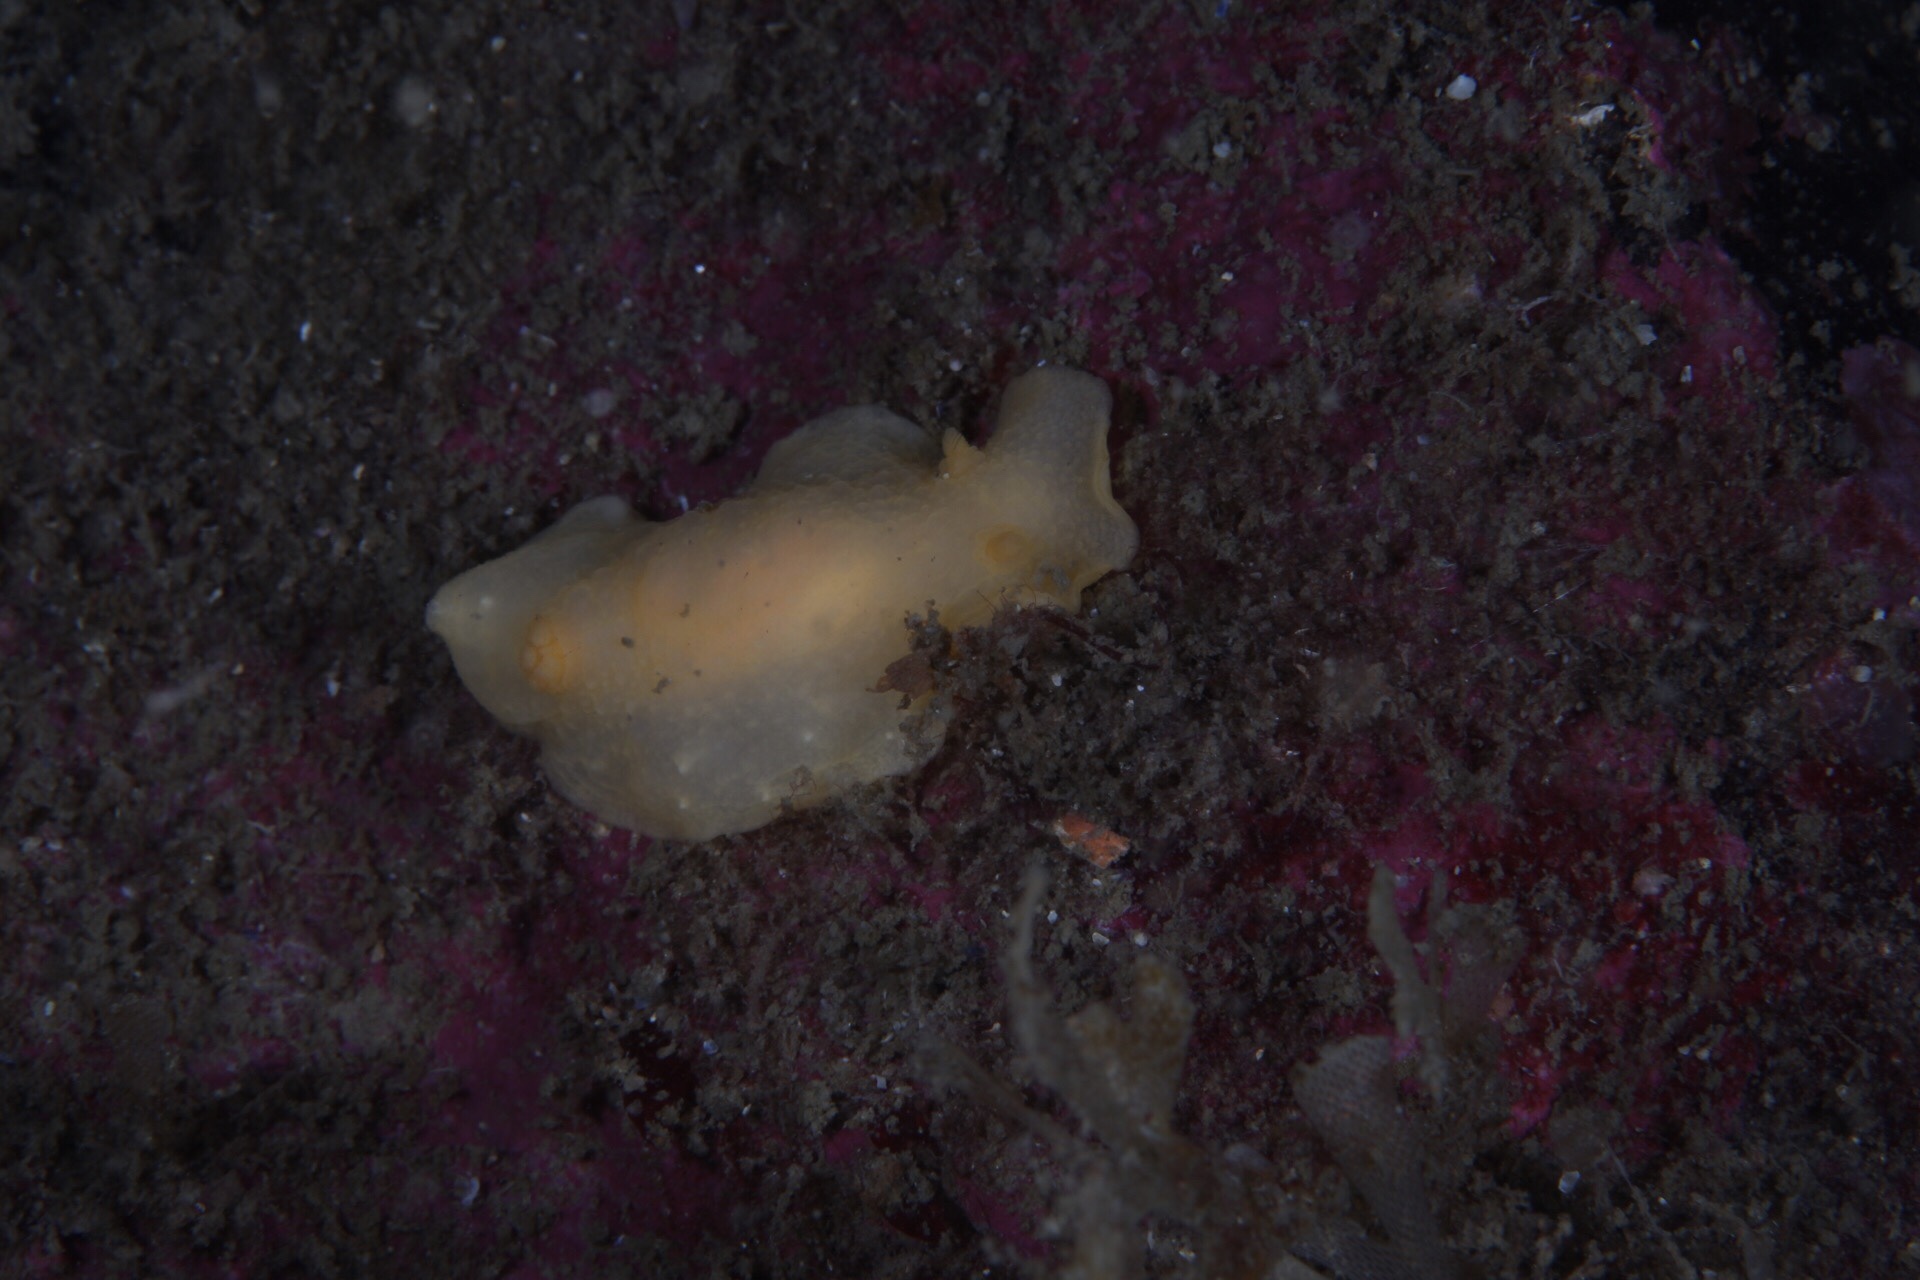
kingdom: Animalia
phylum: Mollusca
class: Gastropoda
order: Nudibranchia
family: Cadlinidae
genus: Cadlina
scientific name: Cadlina laevis
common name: White atlantic cadlina
